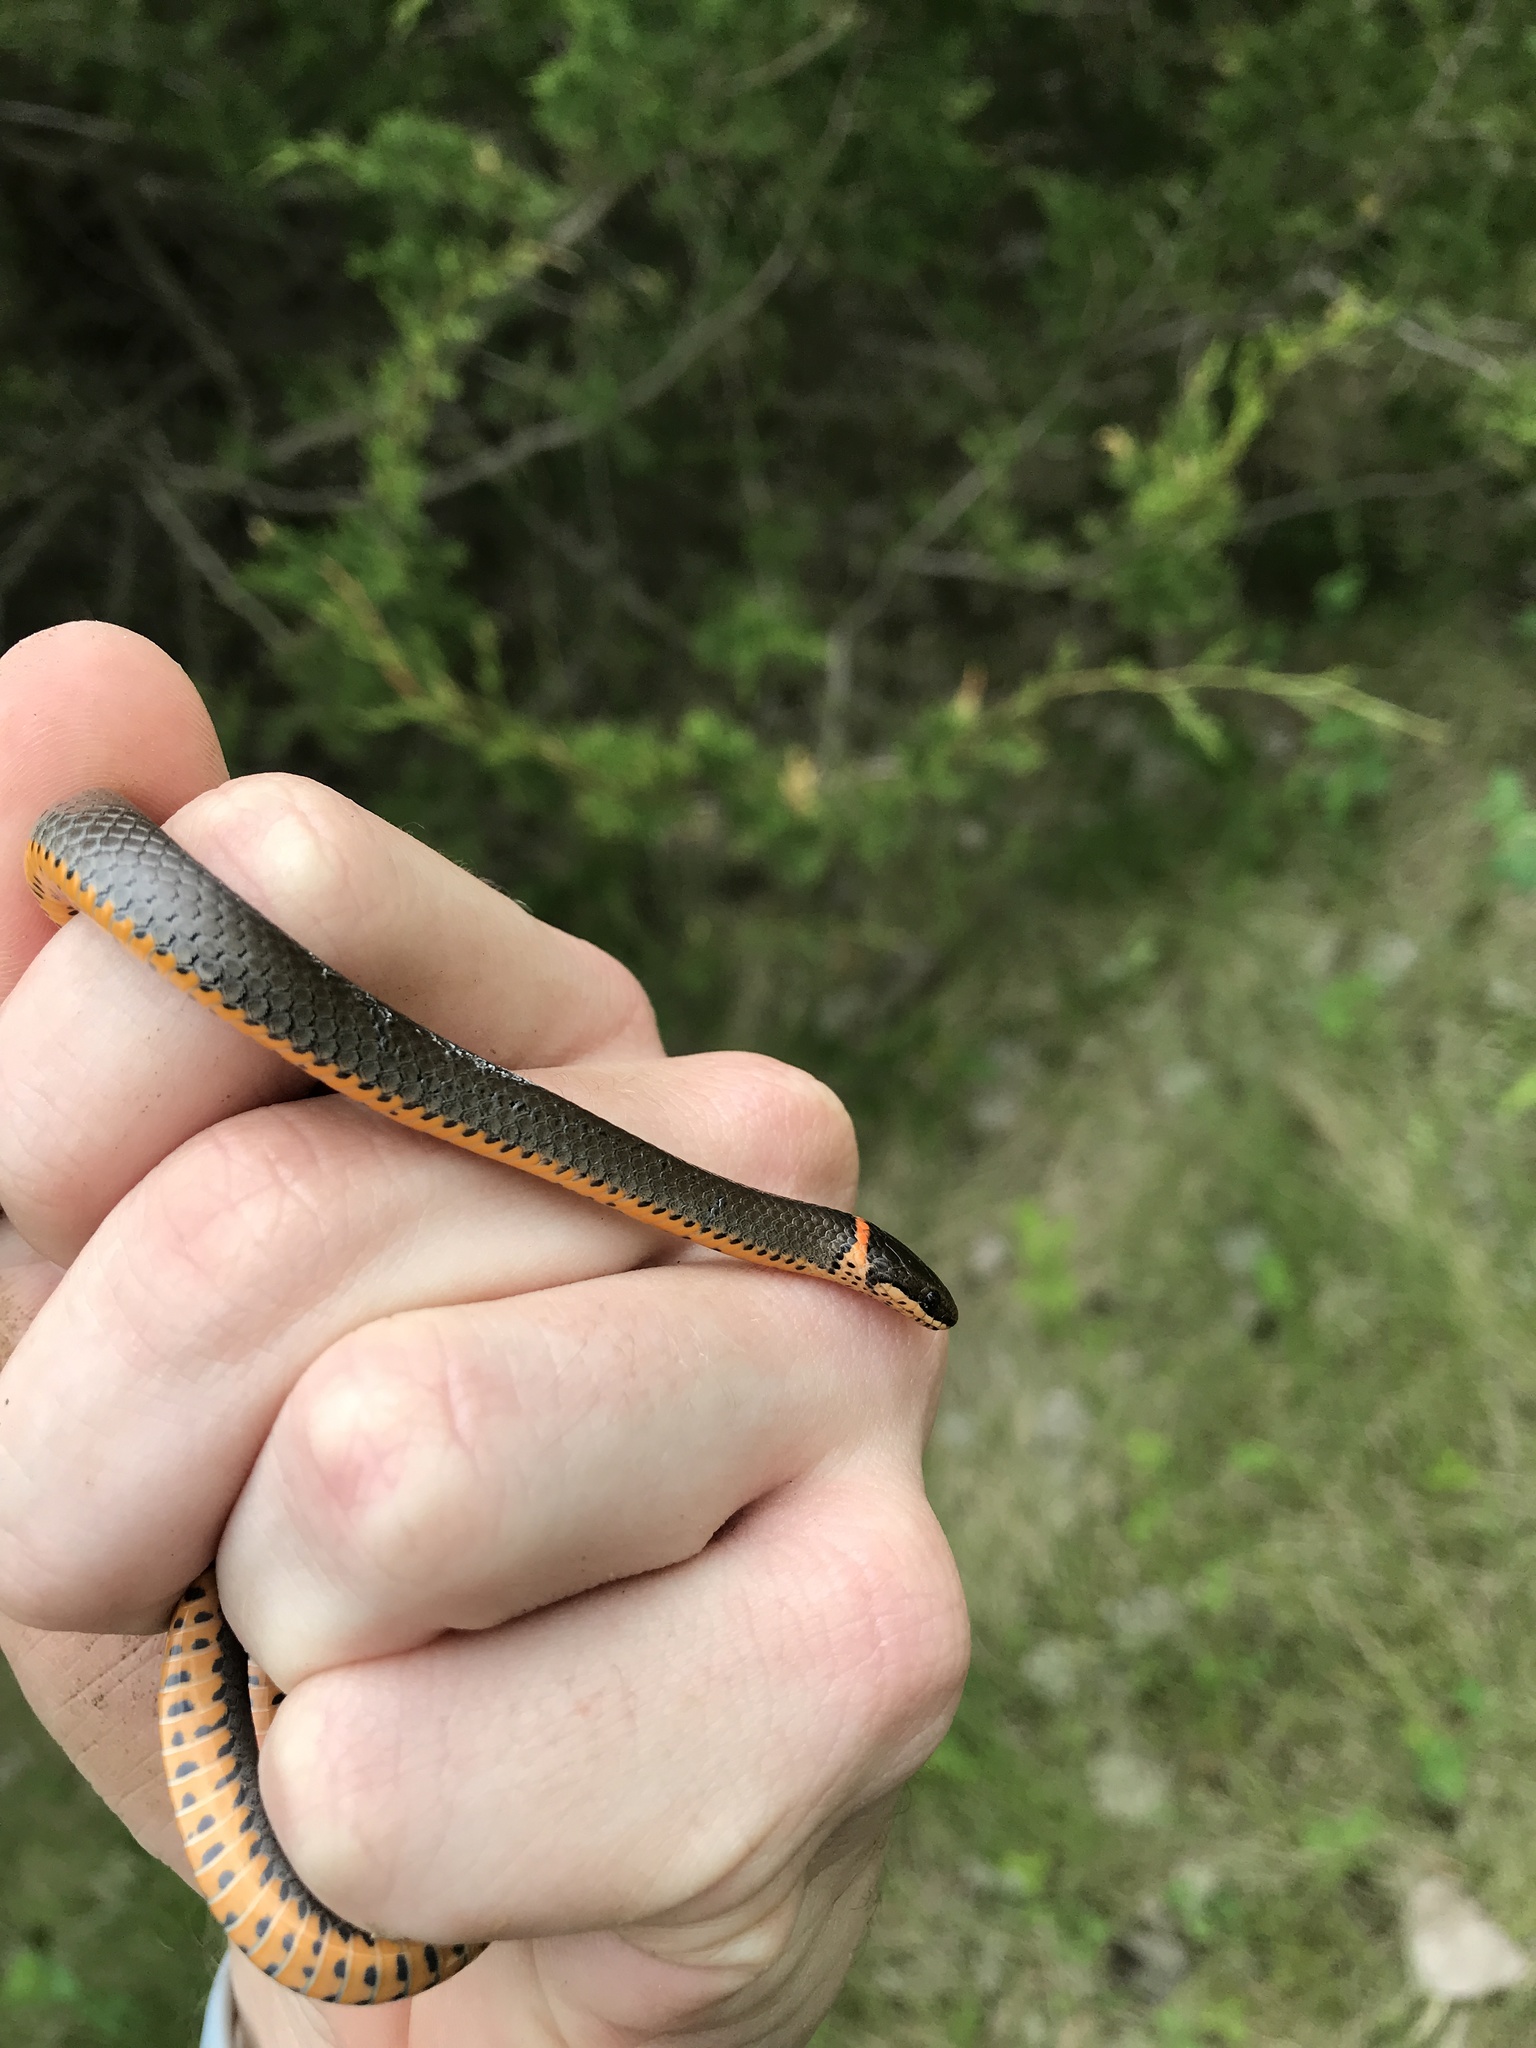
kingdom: Animalia
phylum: Chordata
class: Squamata
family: Colubridae
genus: Diadophis
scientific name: Diadophis punctatus
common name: Ringneck snake
